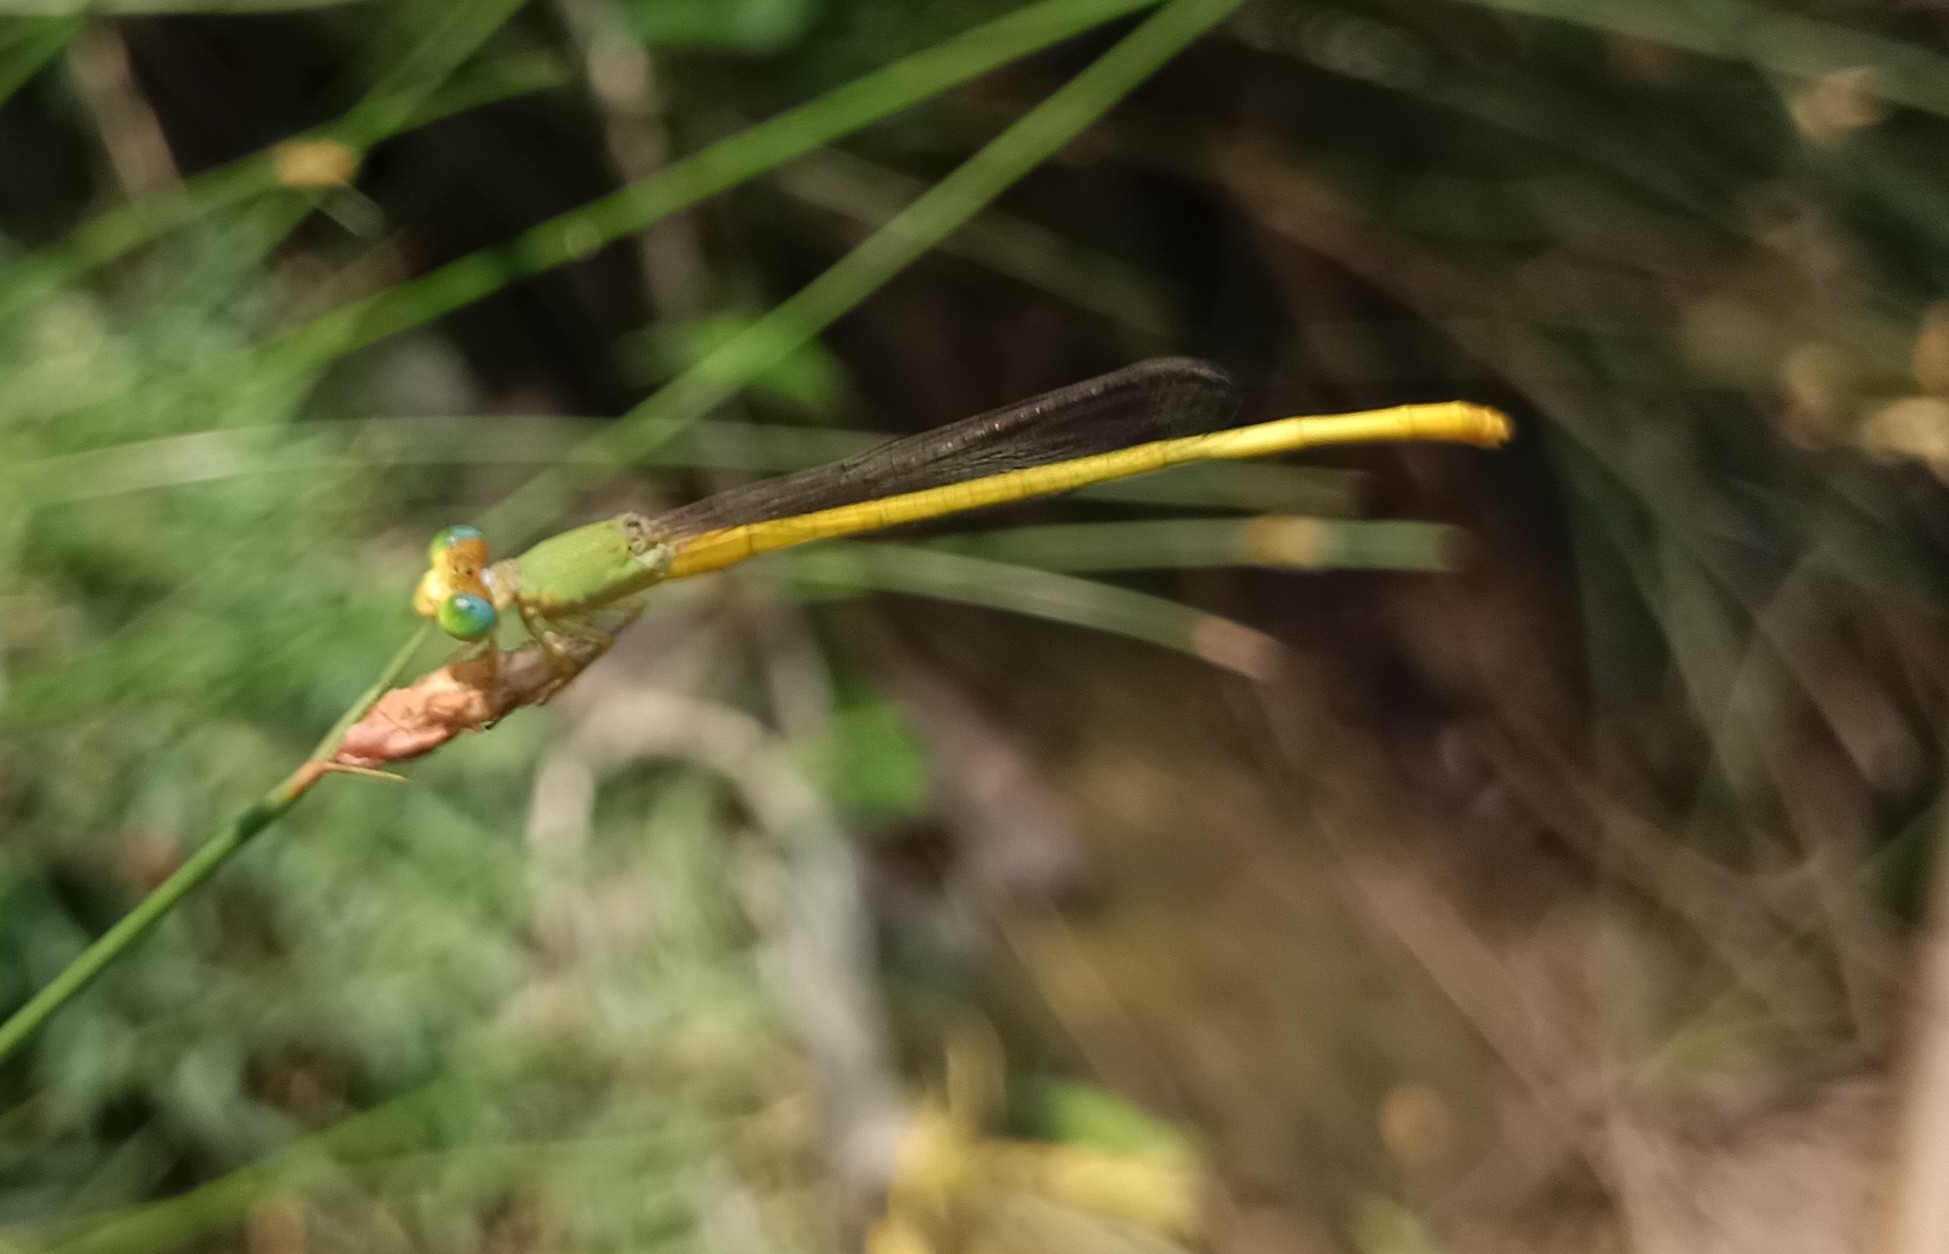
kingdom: Animalia
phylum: Arthropoda
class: Insecta
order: Odonata
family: Coenagrionidae
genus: Ceriagrion
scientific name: Ceriagrion coromandelianum
